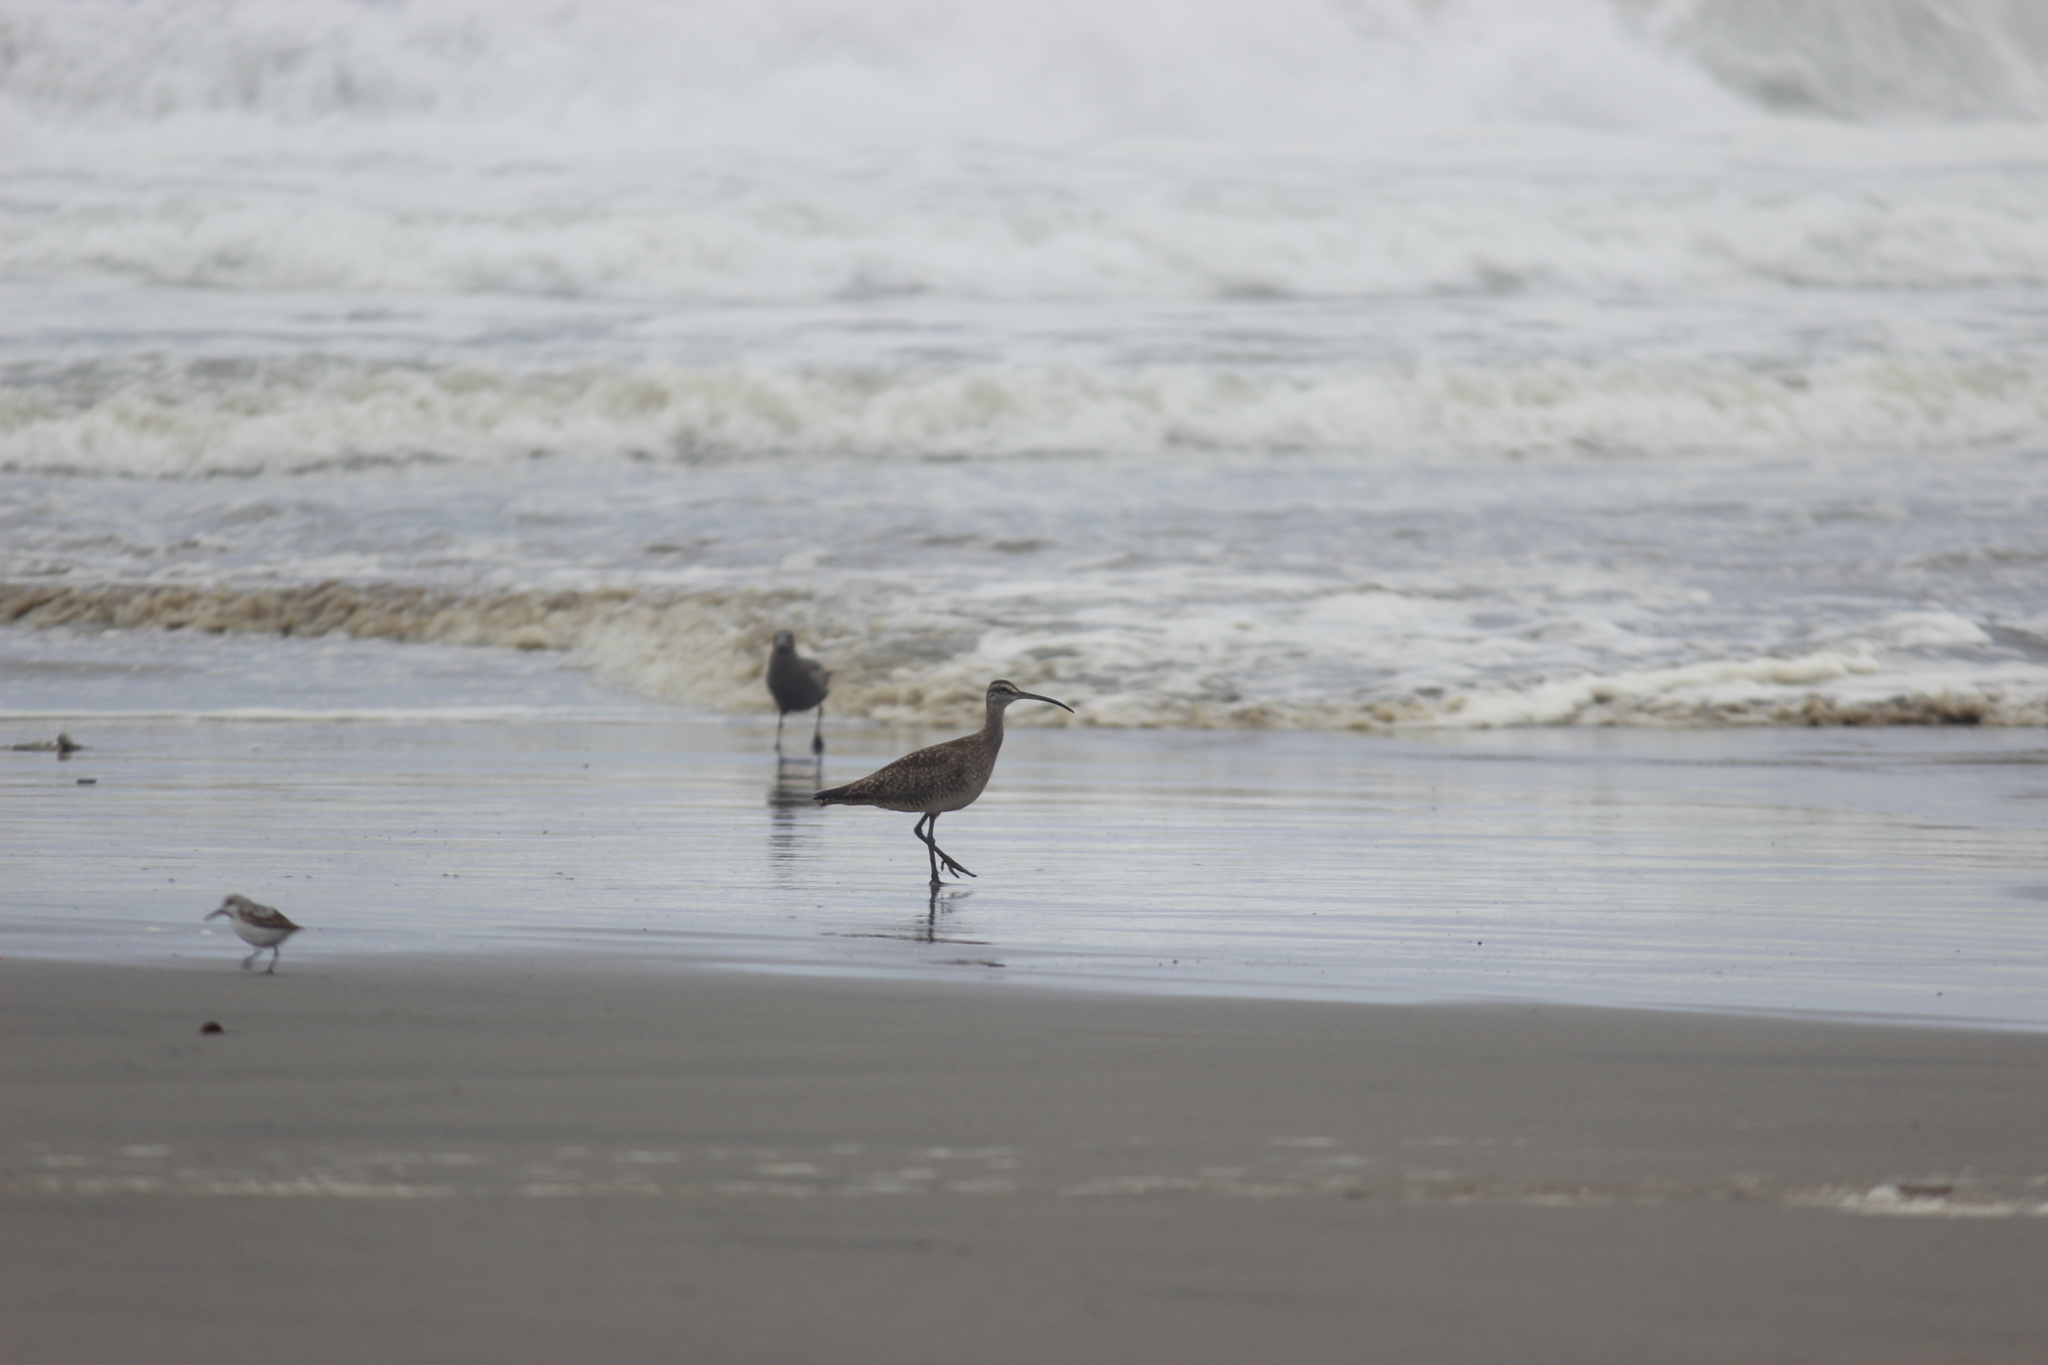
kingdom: Animalia
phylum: Chordata
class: Aves
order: Charadriiformes
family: Scolopacidae
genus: Numenius
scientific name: Numenius phaeopus
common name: Whimbrel
